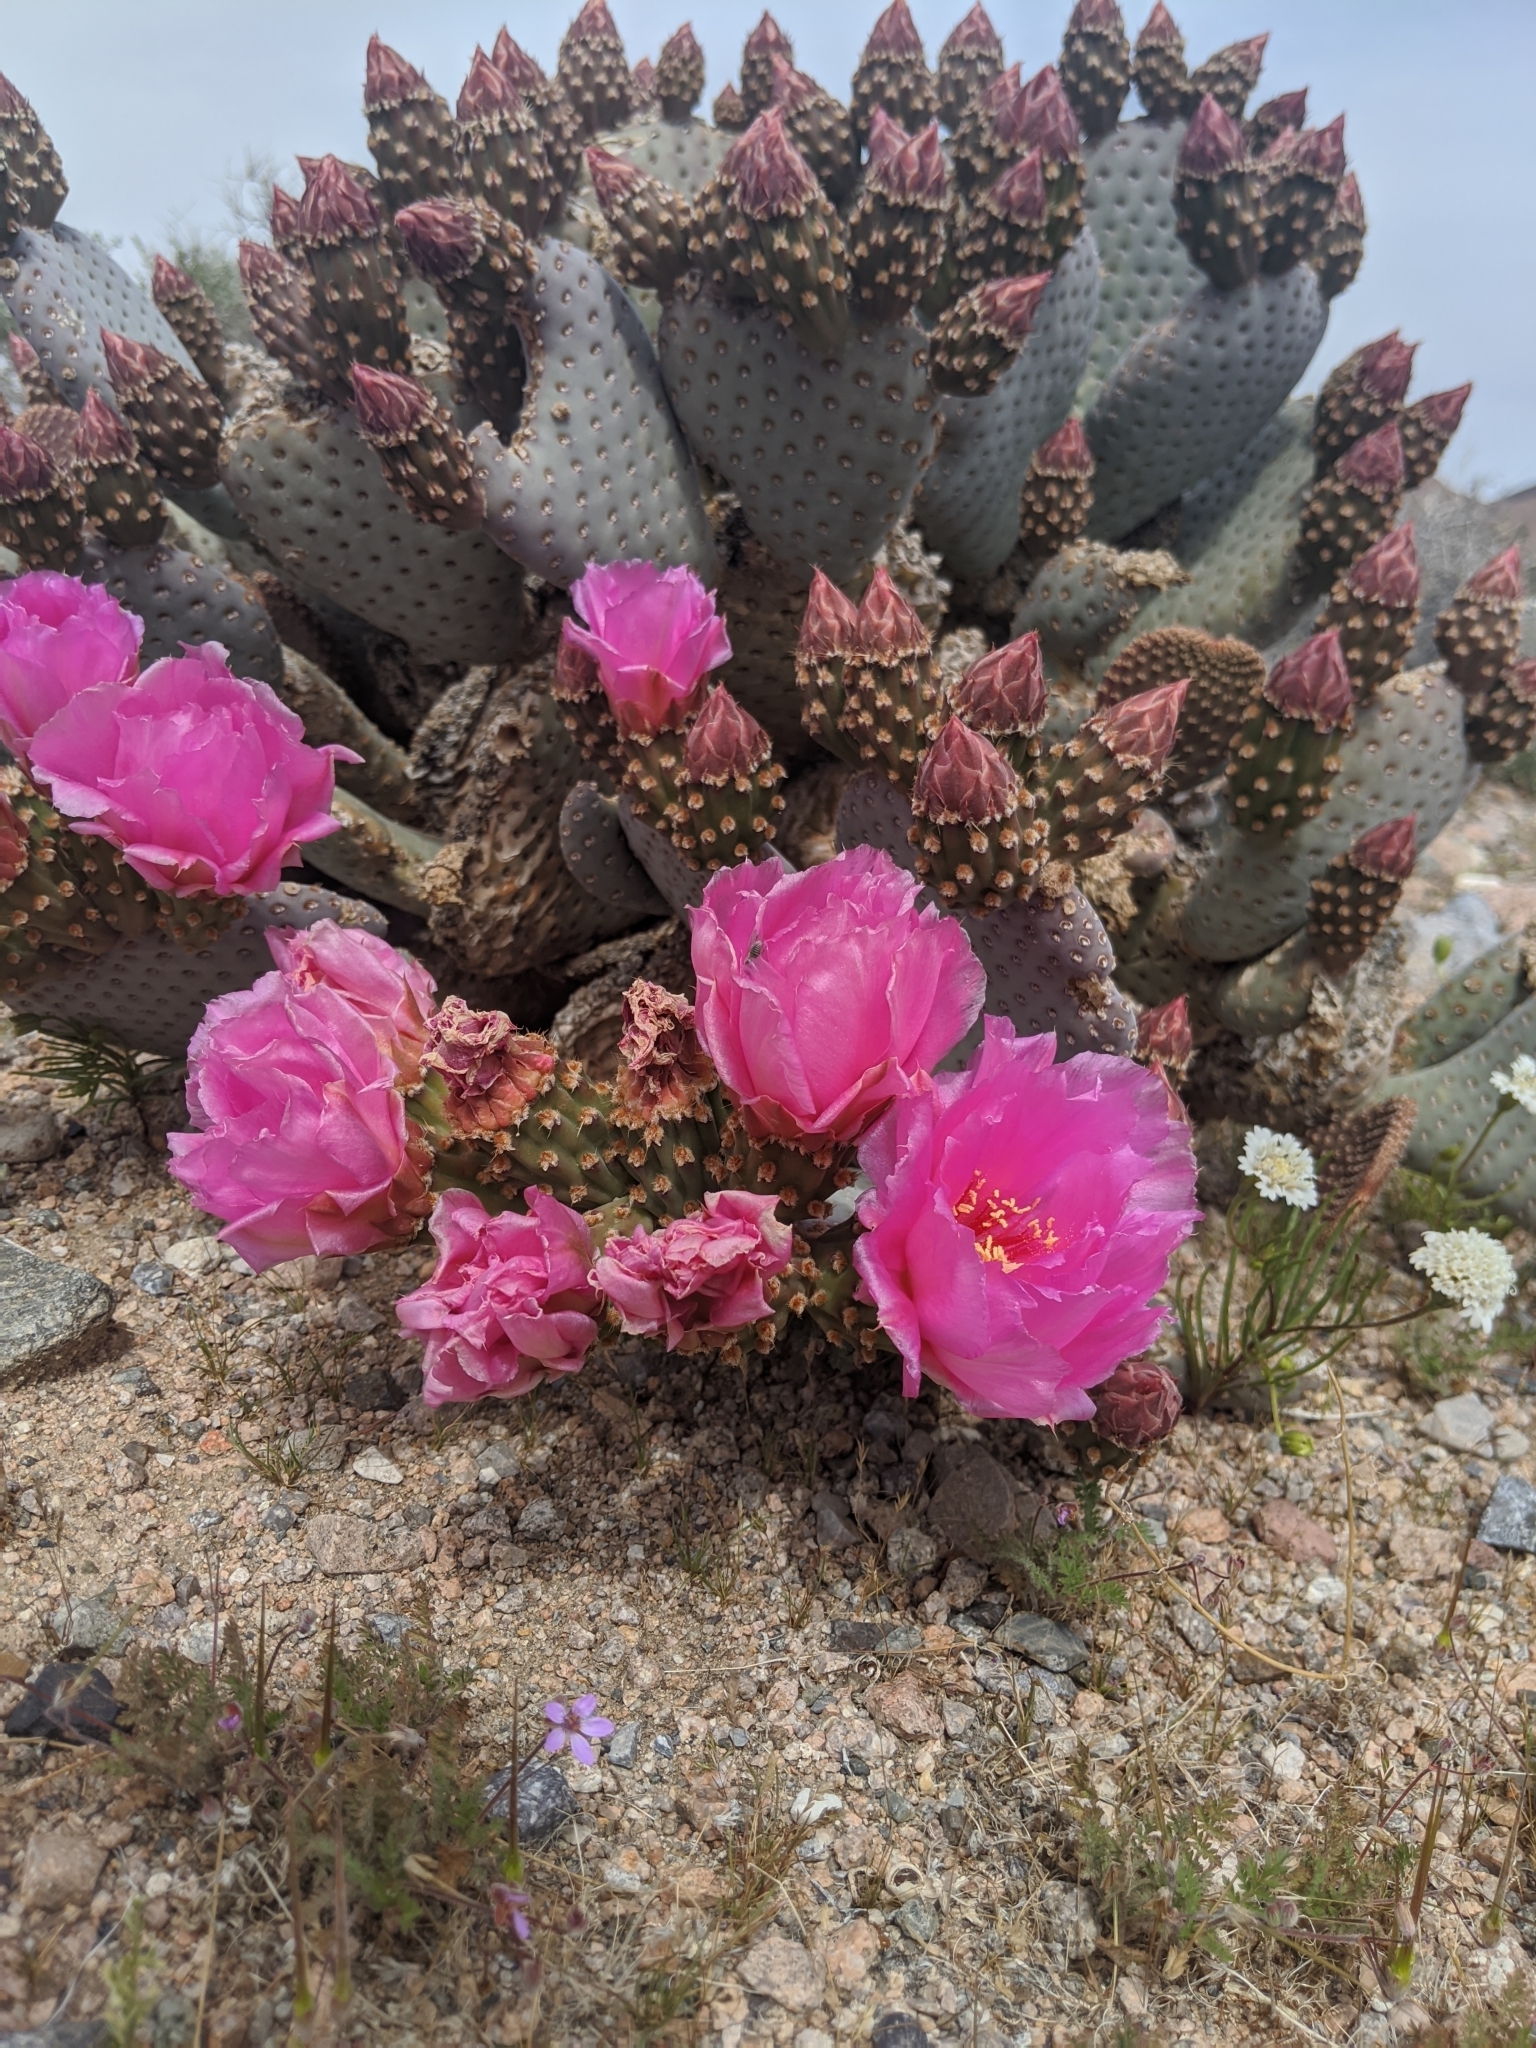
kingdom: Plantae
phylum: Tracheophyta
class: Magnoliopsida
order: Caryophyllales
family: Cactaceae
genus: Opuntia
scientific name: Opuntia basilaris
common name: Beavertail prickly-pear
